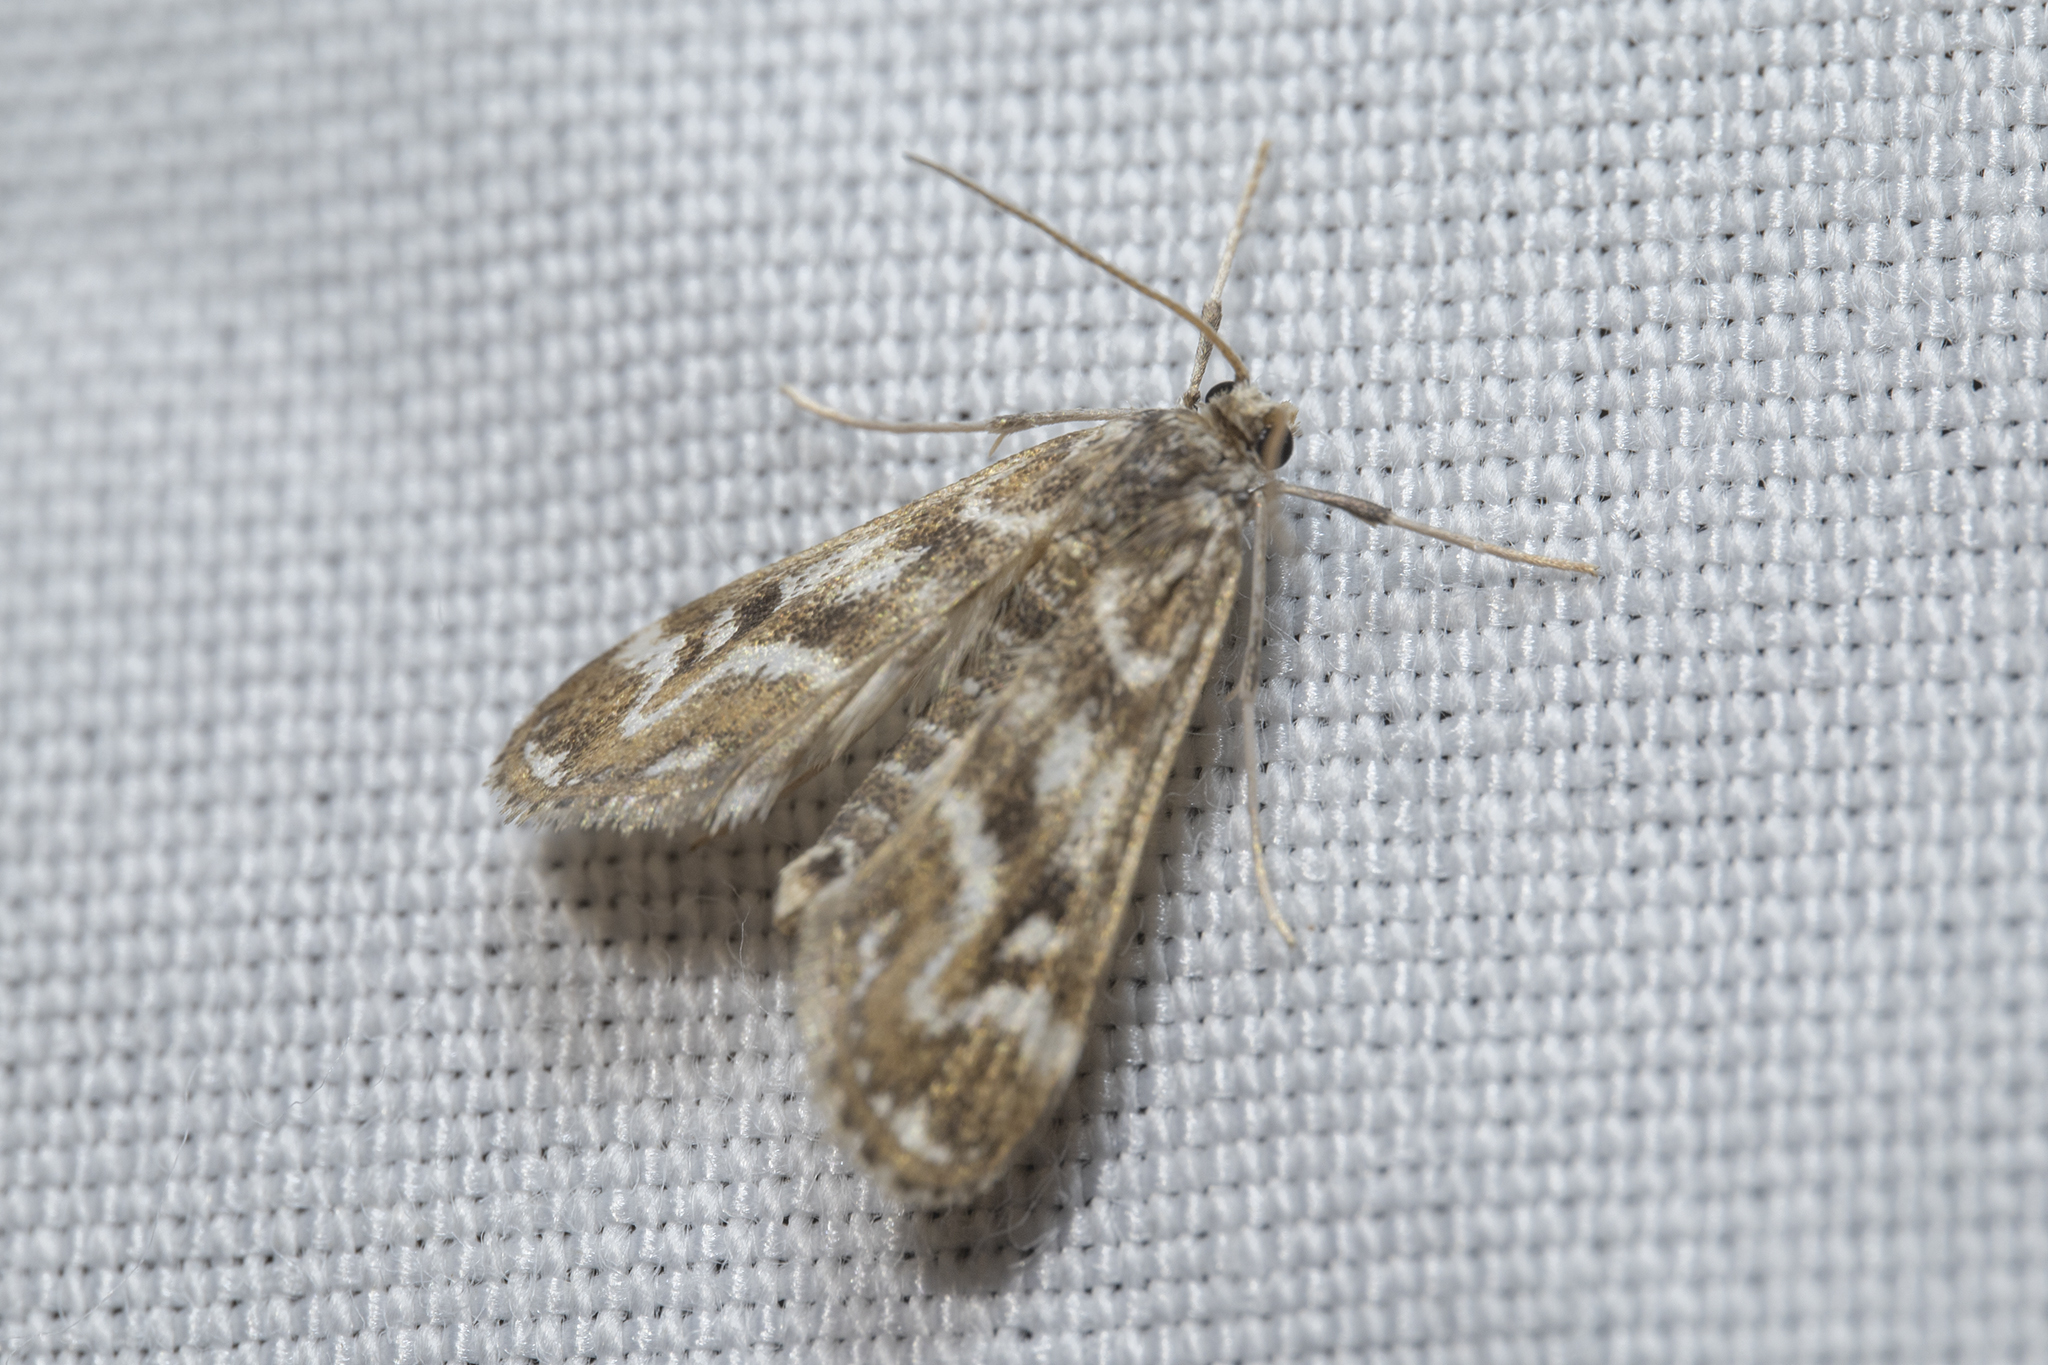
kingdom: Animalia
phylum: Arthropoda
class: Insecta
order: Lepidoptera
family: Crambidae
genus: Hygraula
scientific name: Hygraula nitens
